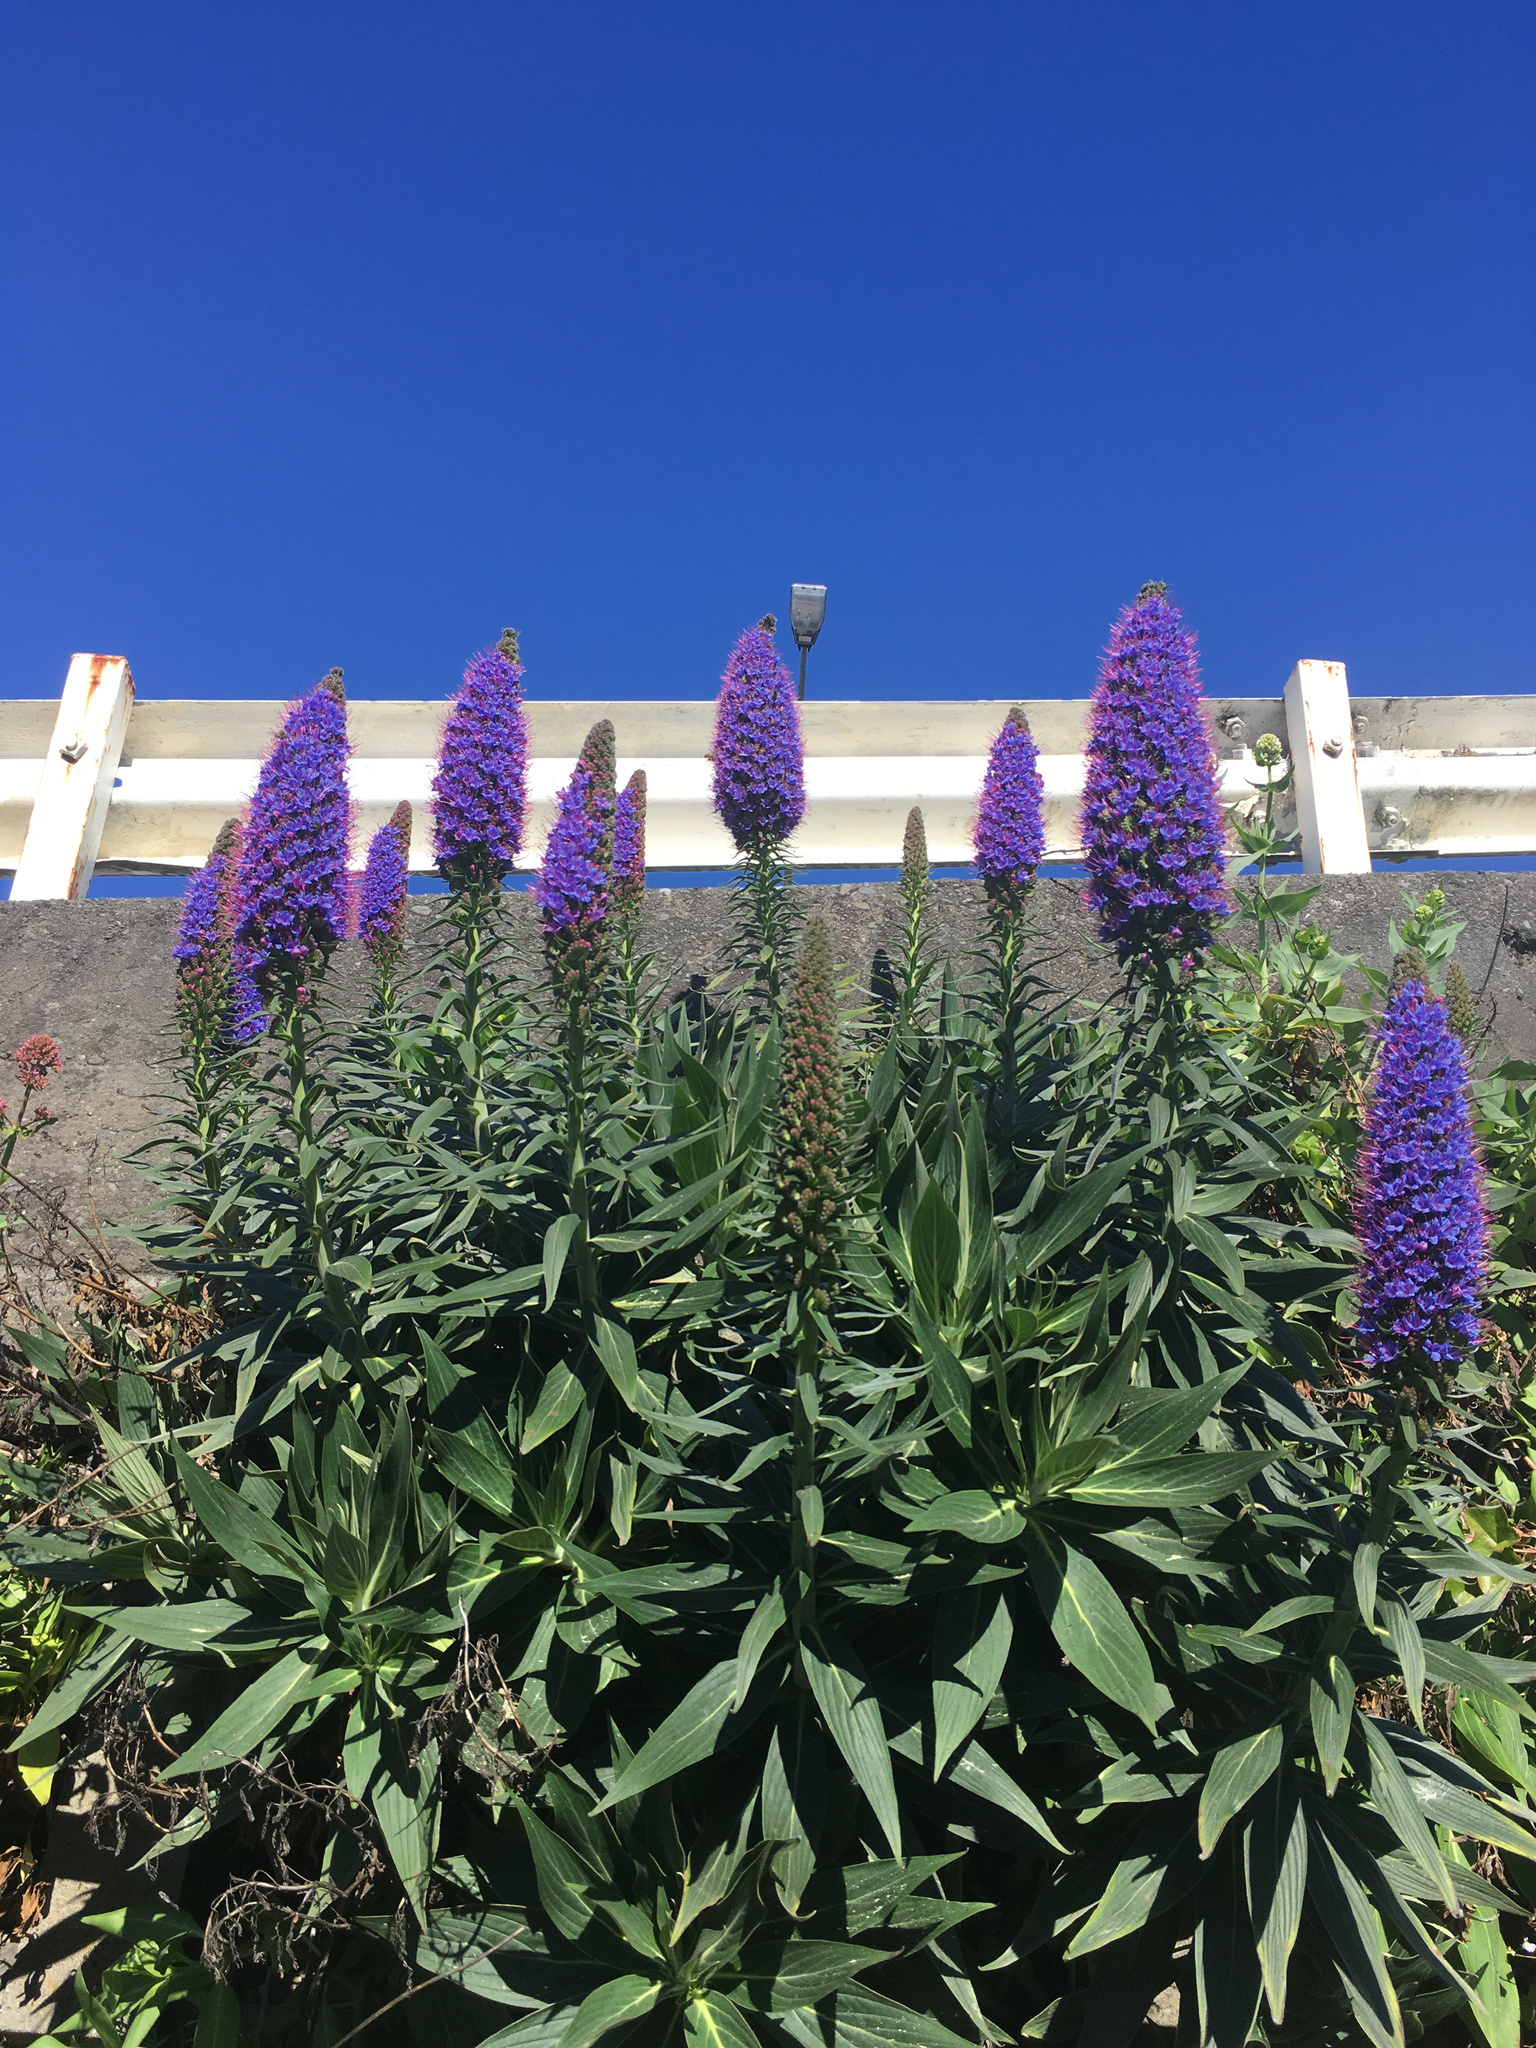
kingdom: Plantae
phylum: Tracheophyta
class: Magnoliopsida
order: Boraginales
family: Boraginaceae
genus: Echium
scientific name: Echium candicans
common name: Pride of madeira
